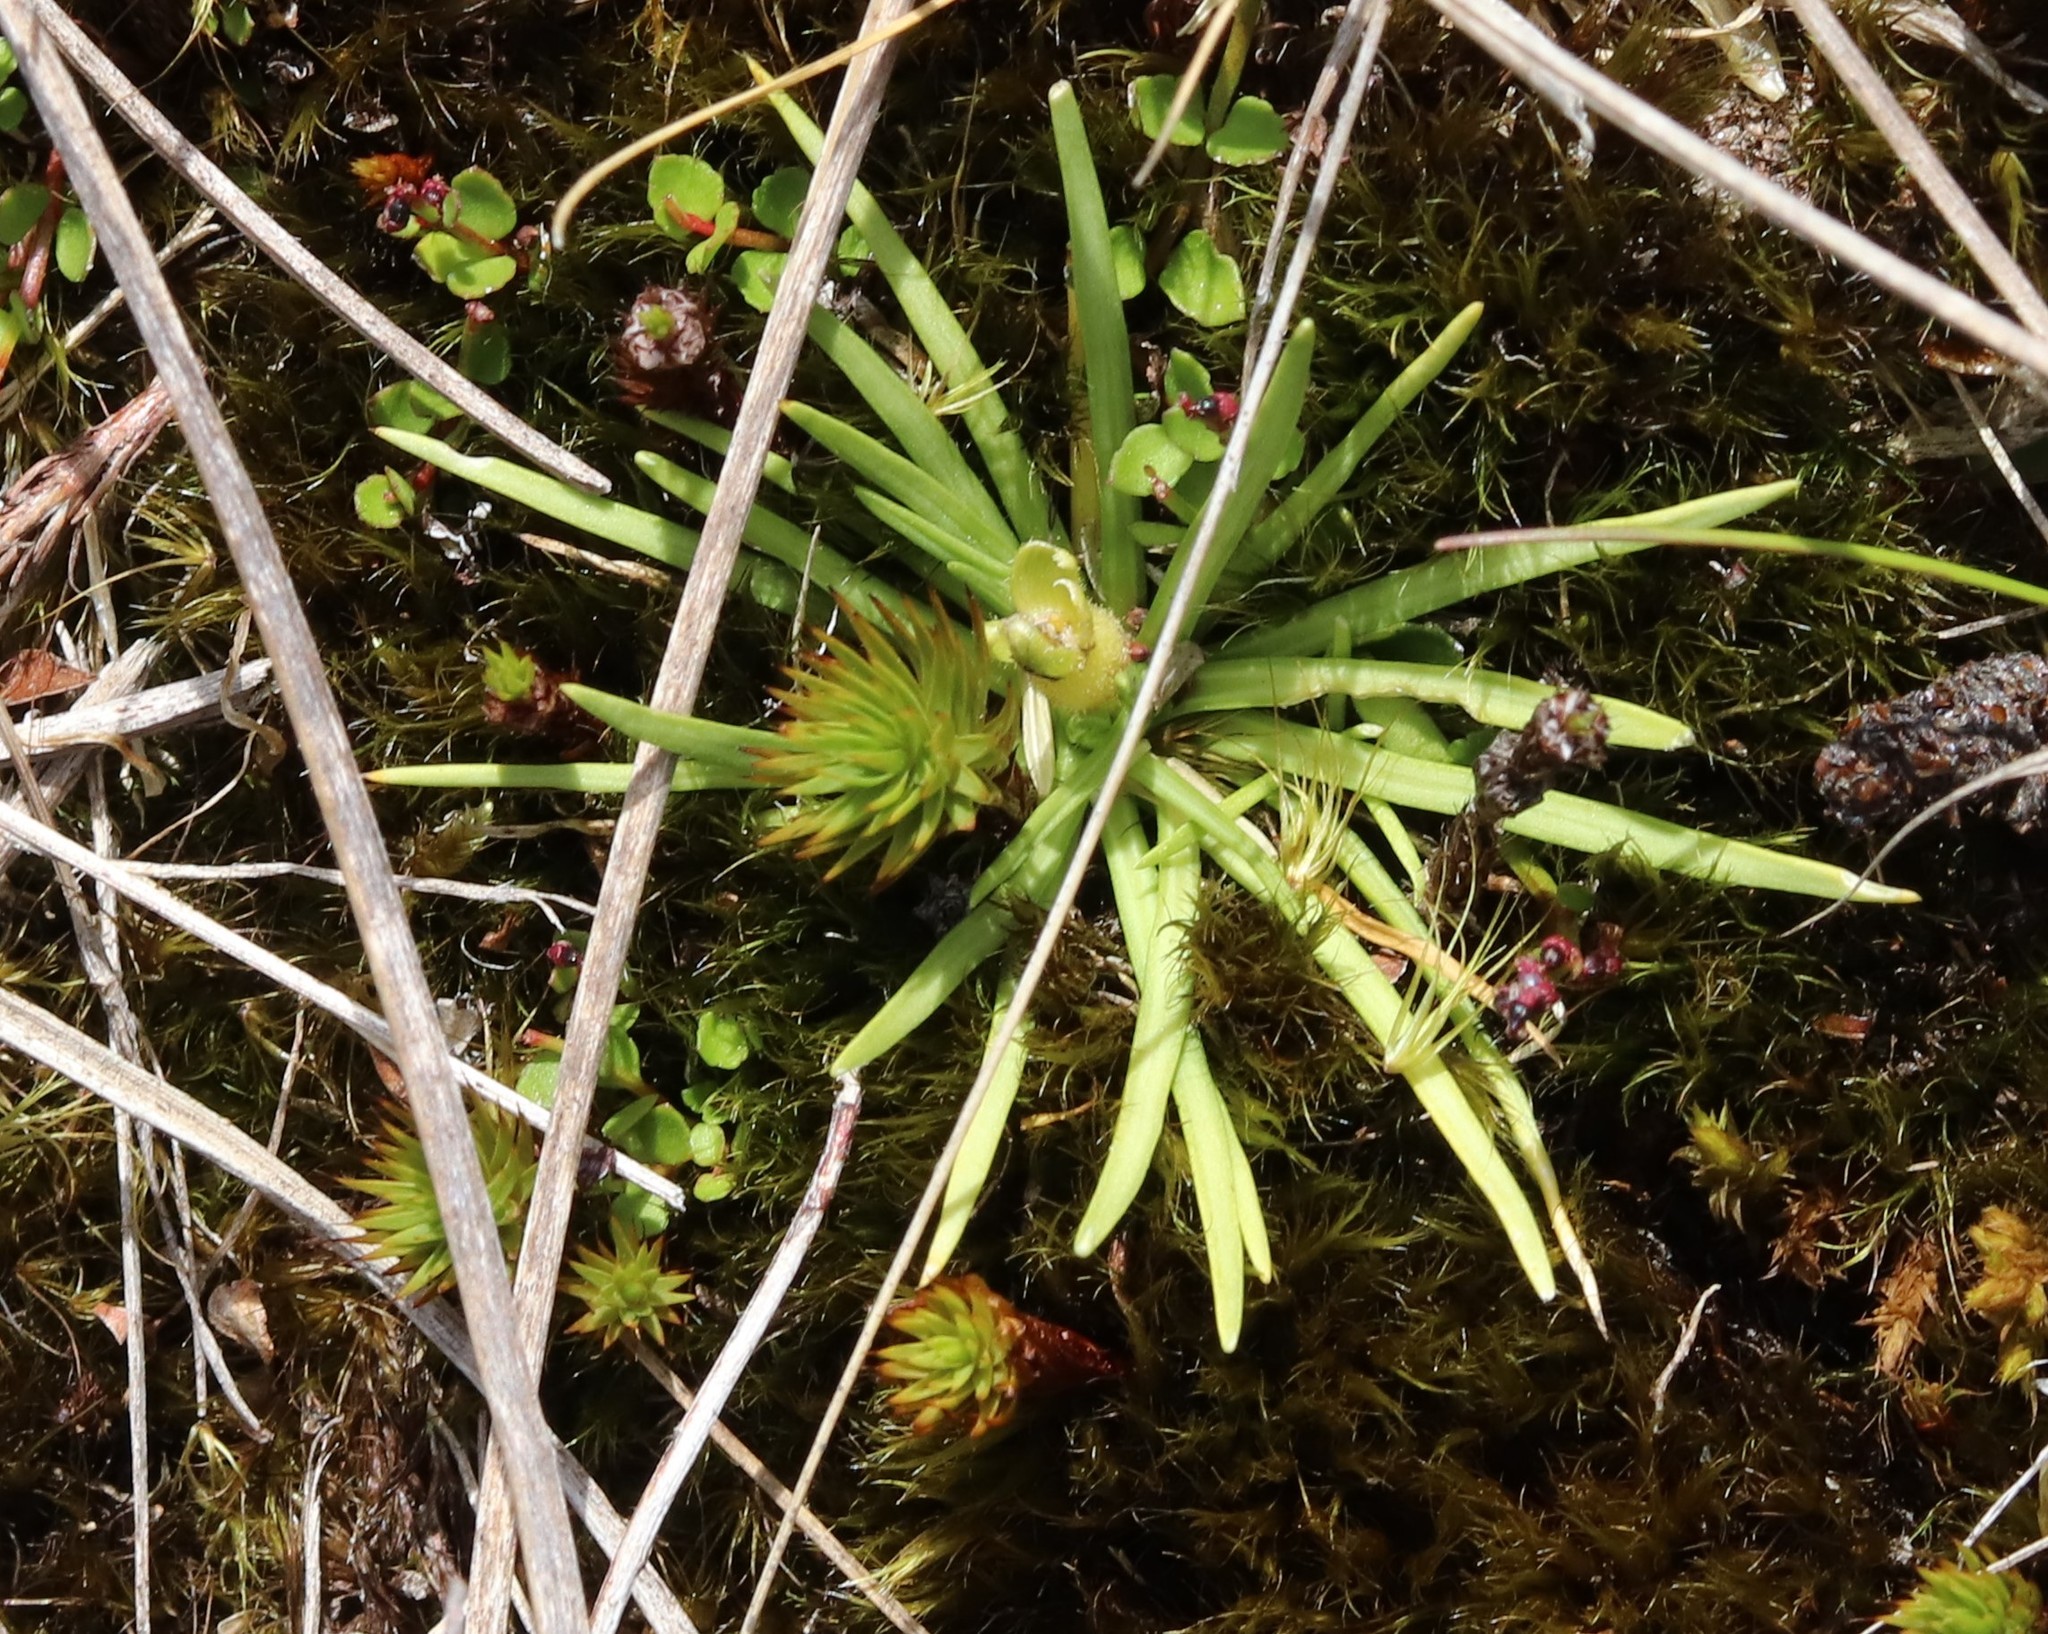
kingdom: Plantae
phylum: Tracheophyta
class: Magnoliopsida
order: Asterales
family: Stylidiaceae
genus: Oreostylidium
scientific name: Oreostylidium subulatum
